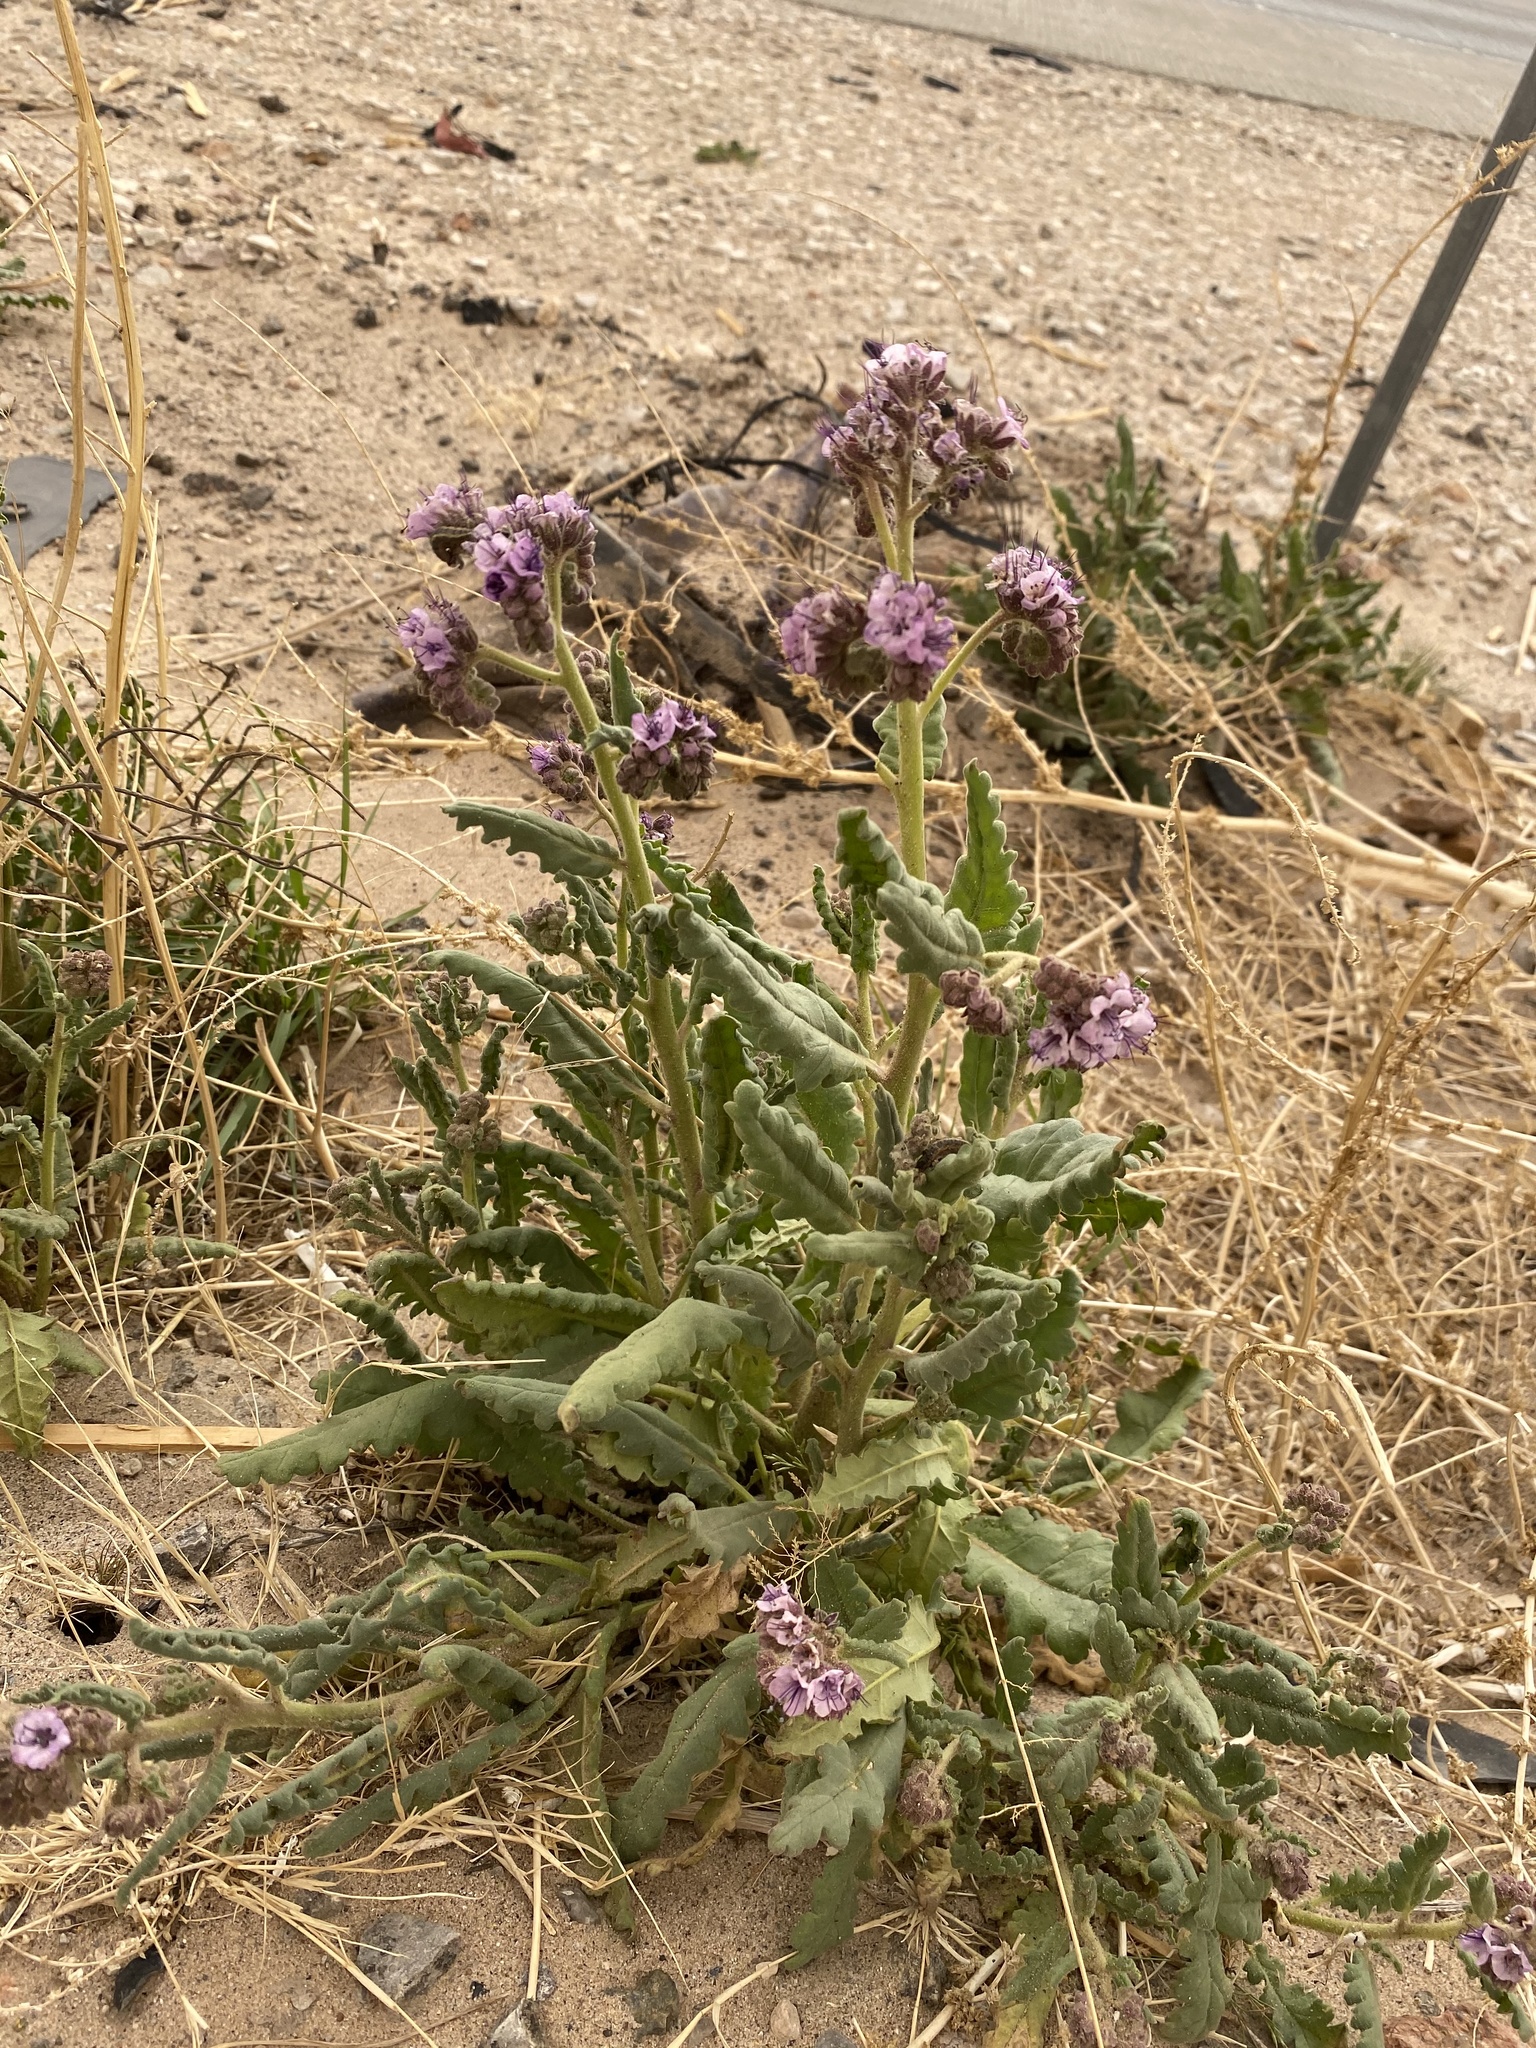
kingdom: Plantae
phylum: Tracheophyta
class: Magnoliopsida
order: Boraginales
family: Hydrophyllaceae
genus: Phacelia
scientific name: Phacelia integrifolia
